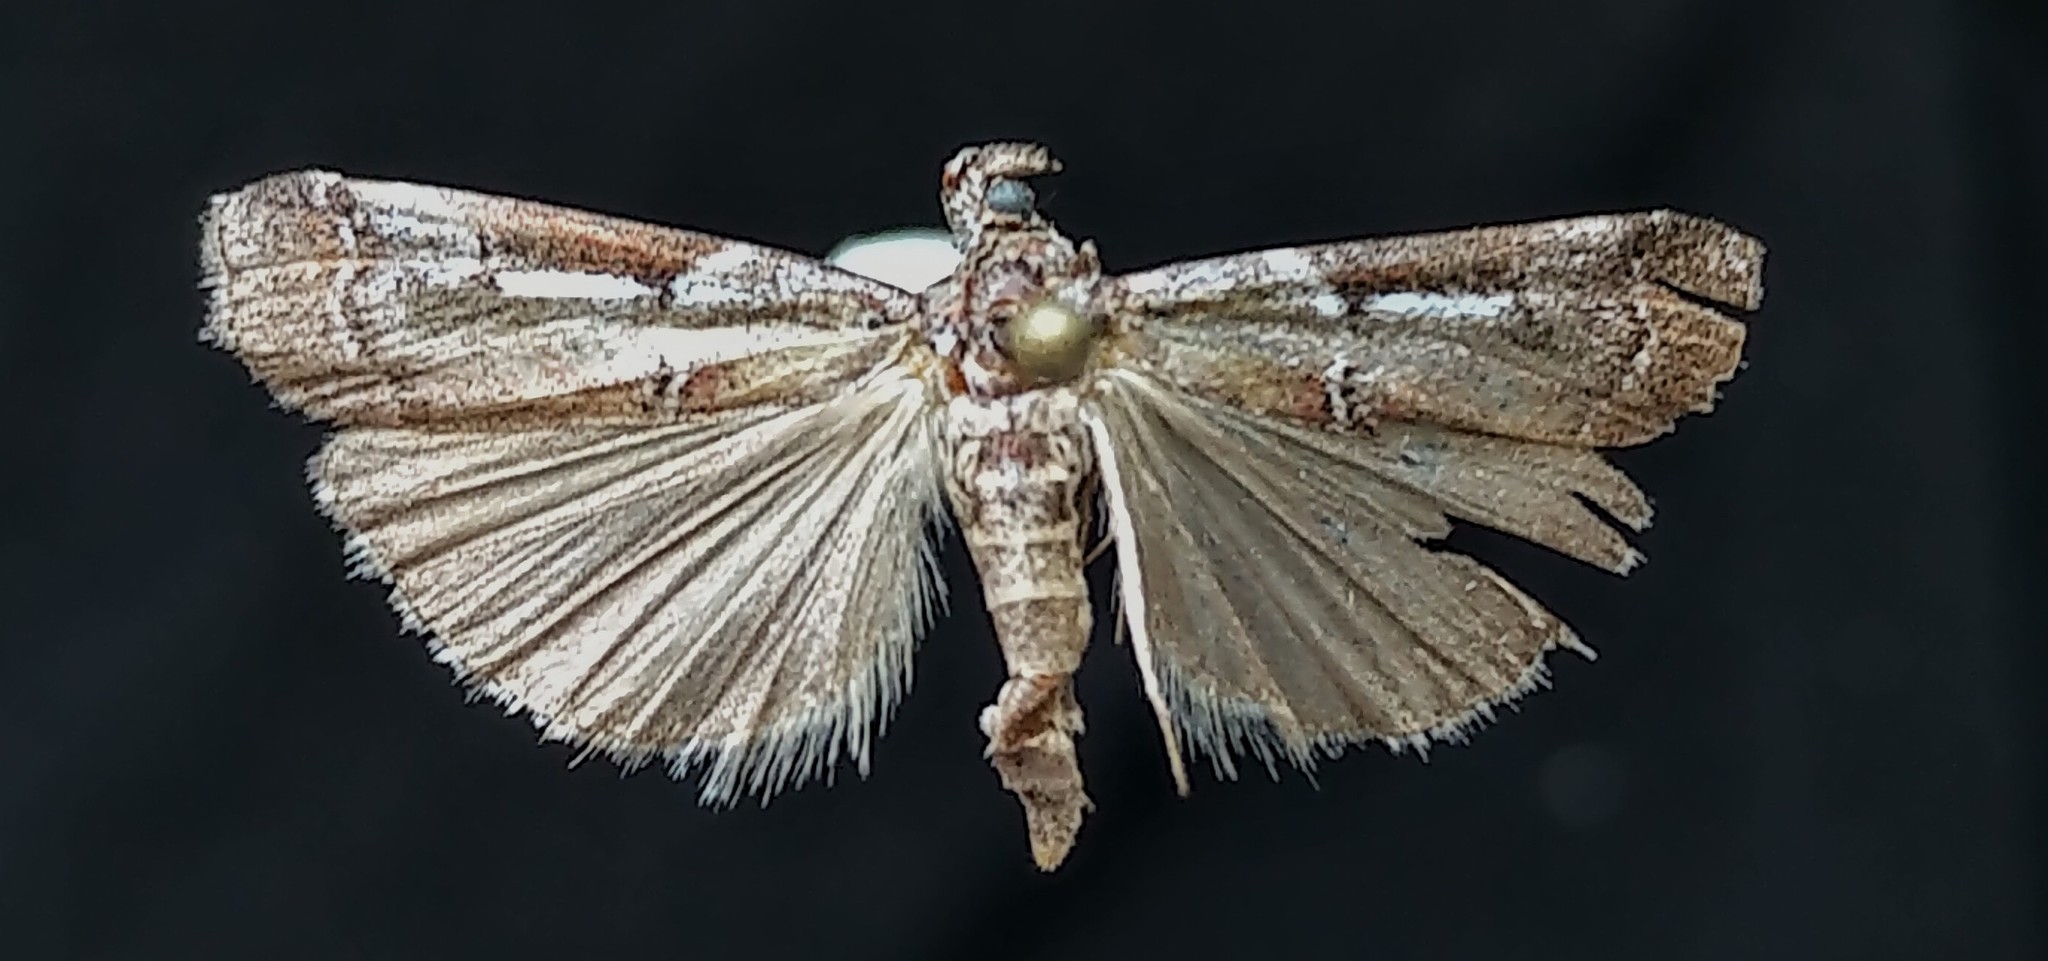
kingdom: Animalia
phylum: Arthropoda
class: Insecta
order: Lepidoptera
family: Pyralidae
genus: Ambesa
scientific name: Ambesa laetella
